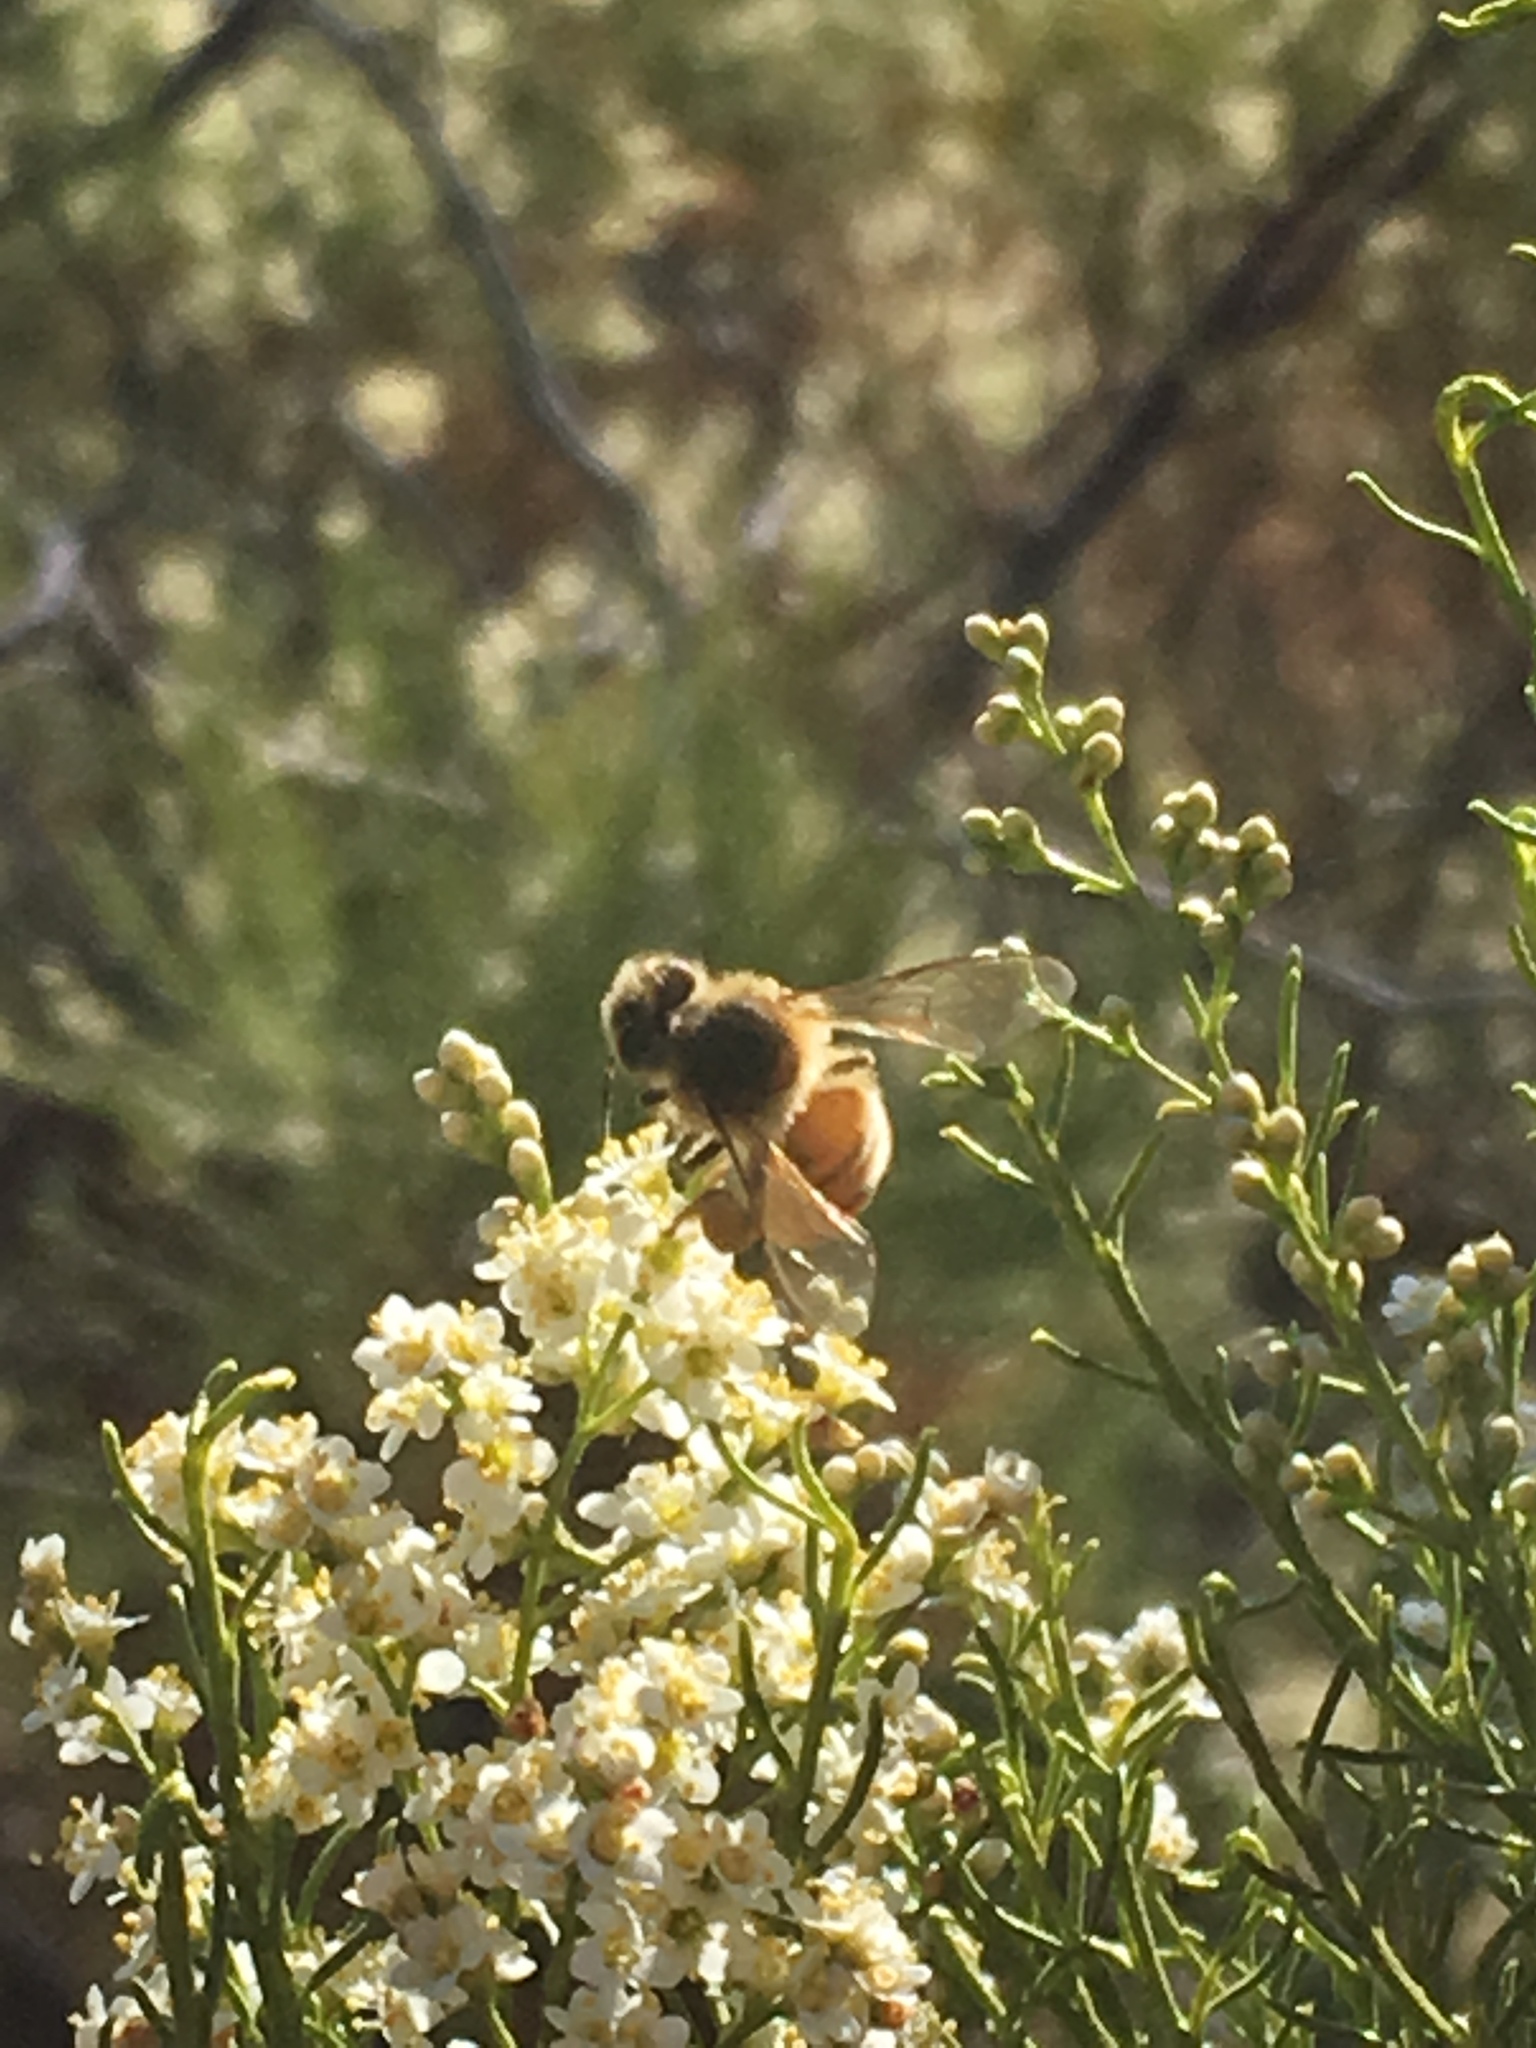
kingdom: Animalia
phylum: Arthropoda
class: Insecta
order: Hymenoptera
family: Apidae
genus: Apis
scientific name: Apis mellifera
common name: Honey bee
